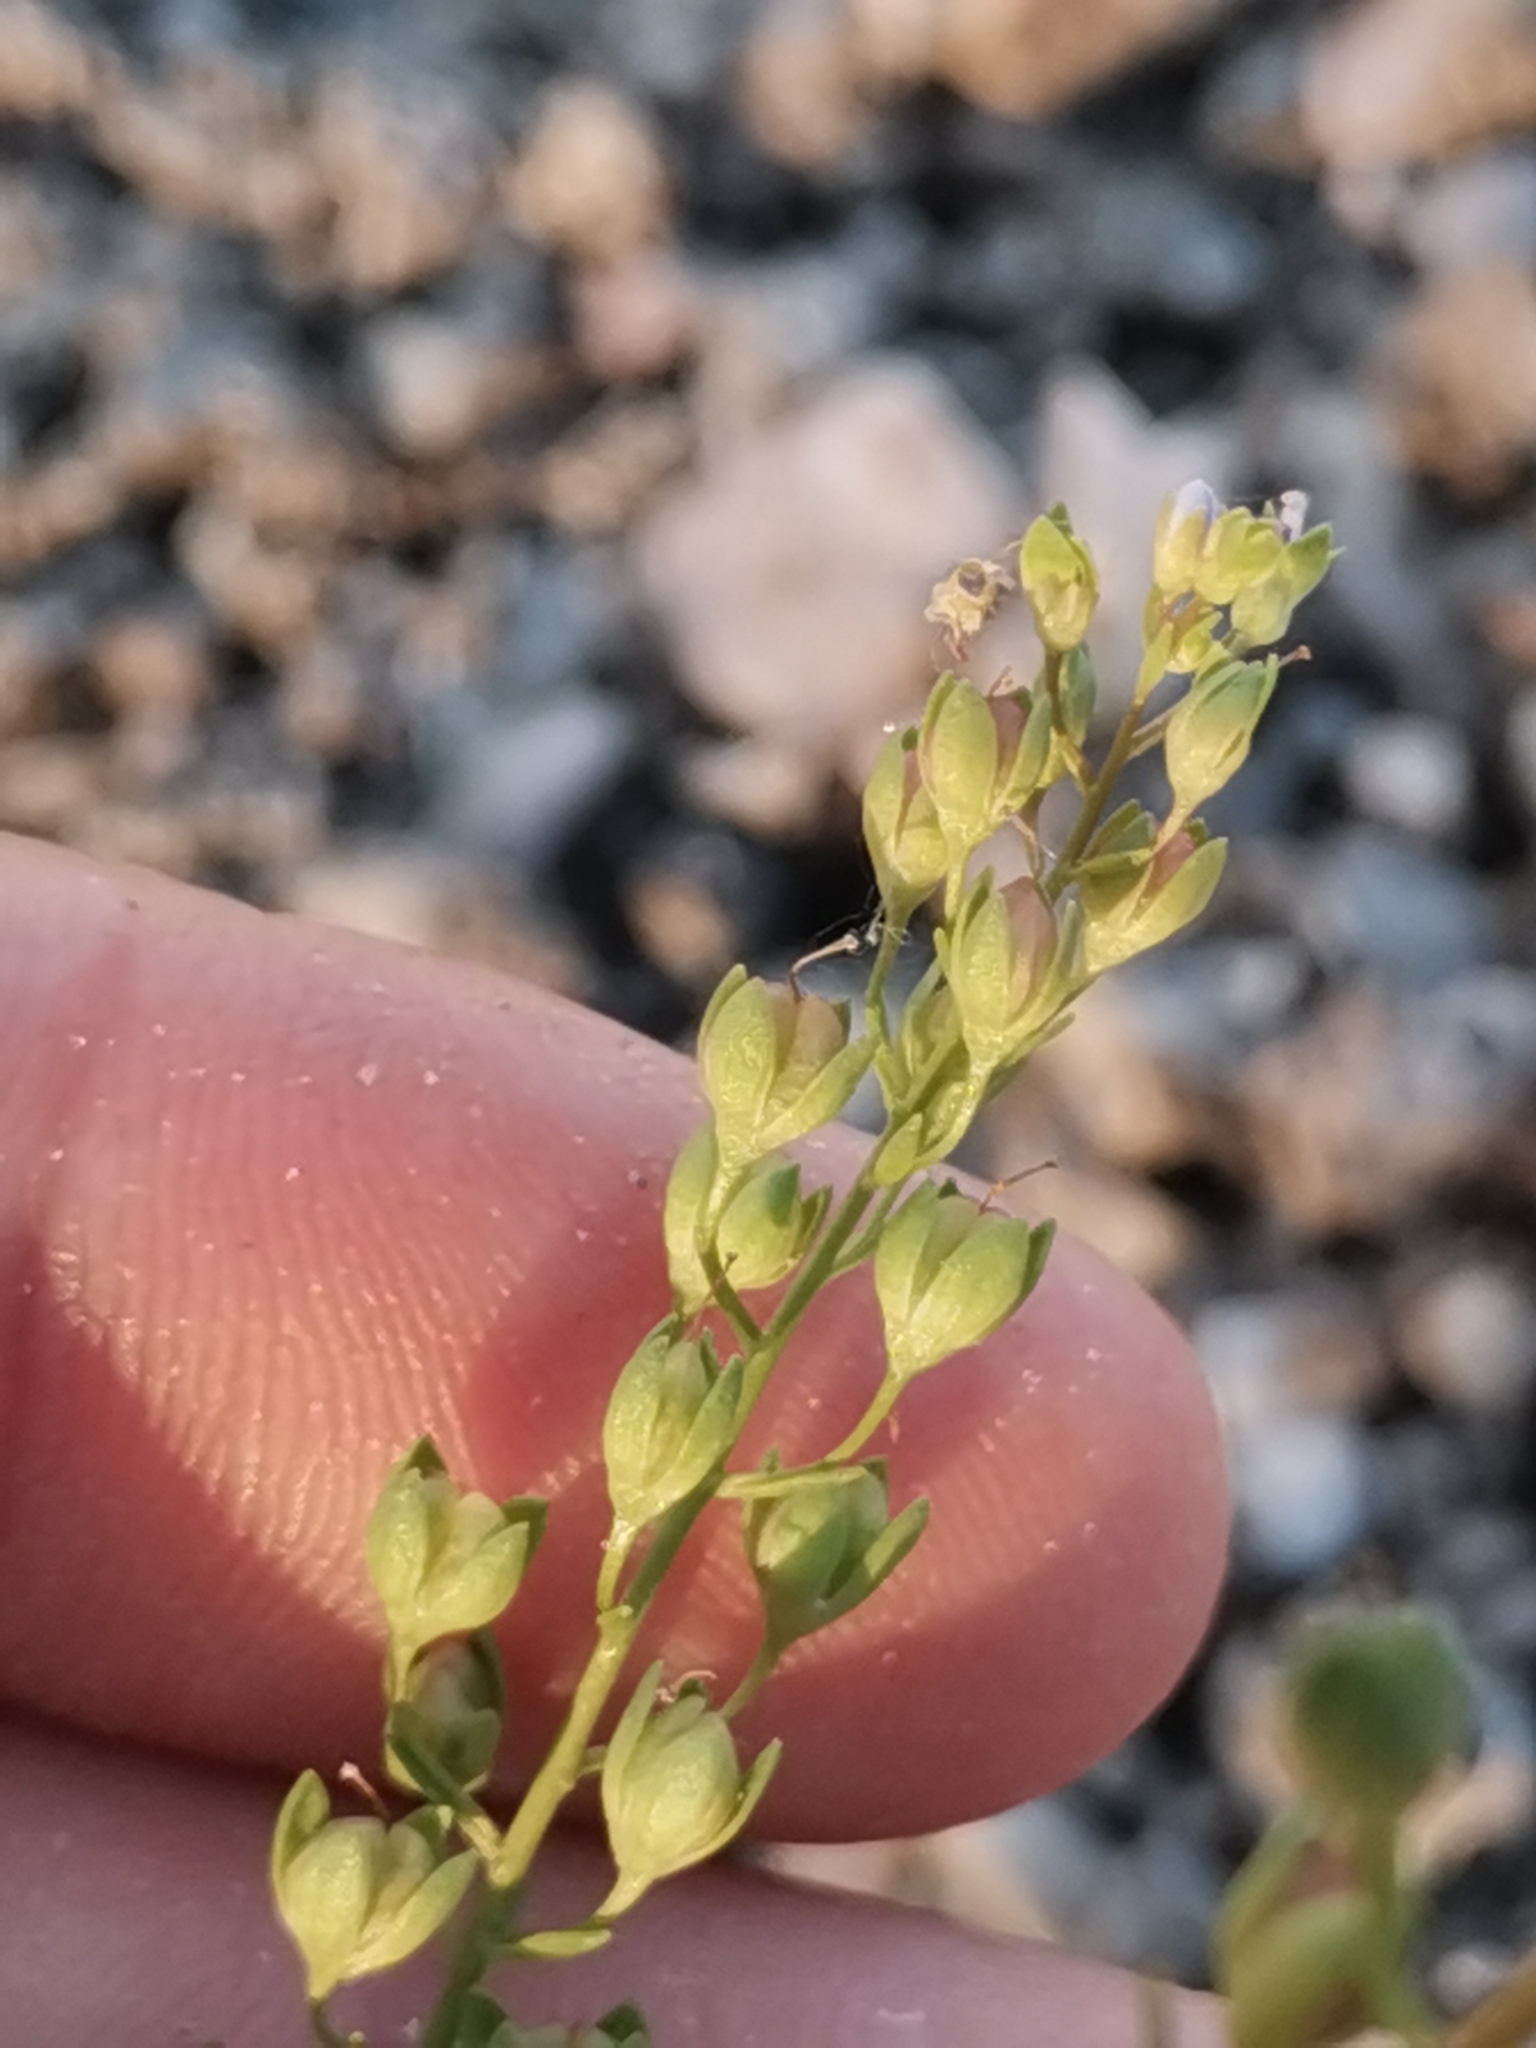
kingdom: Plantae
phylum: Tracheophyta
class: Magnoliopsida
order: Lamiales
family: Plantaginaceae
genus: Veronica
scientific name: Veronica anagallis-aquatica
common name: Water speedwell
